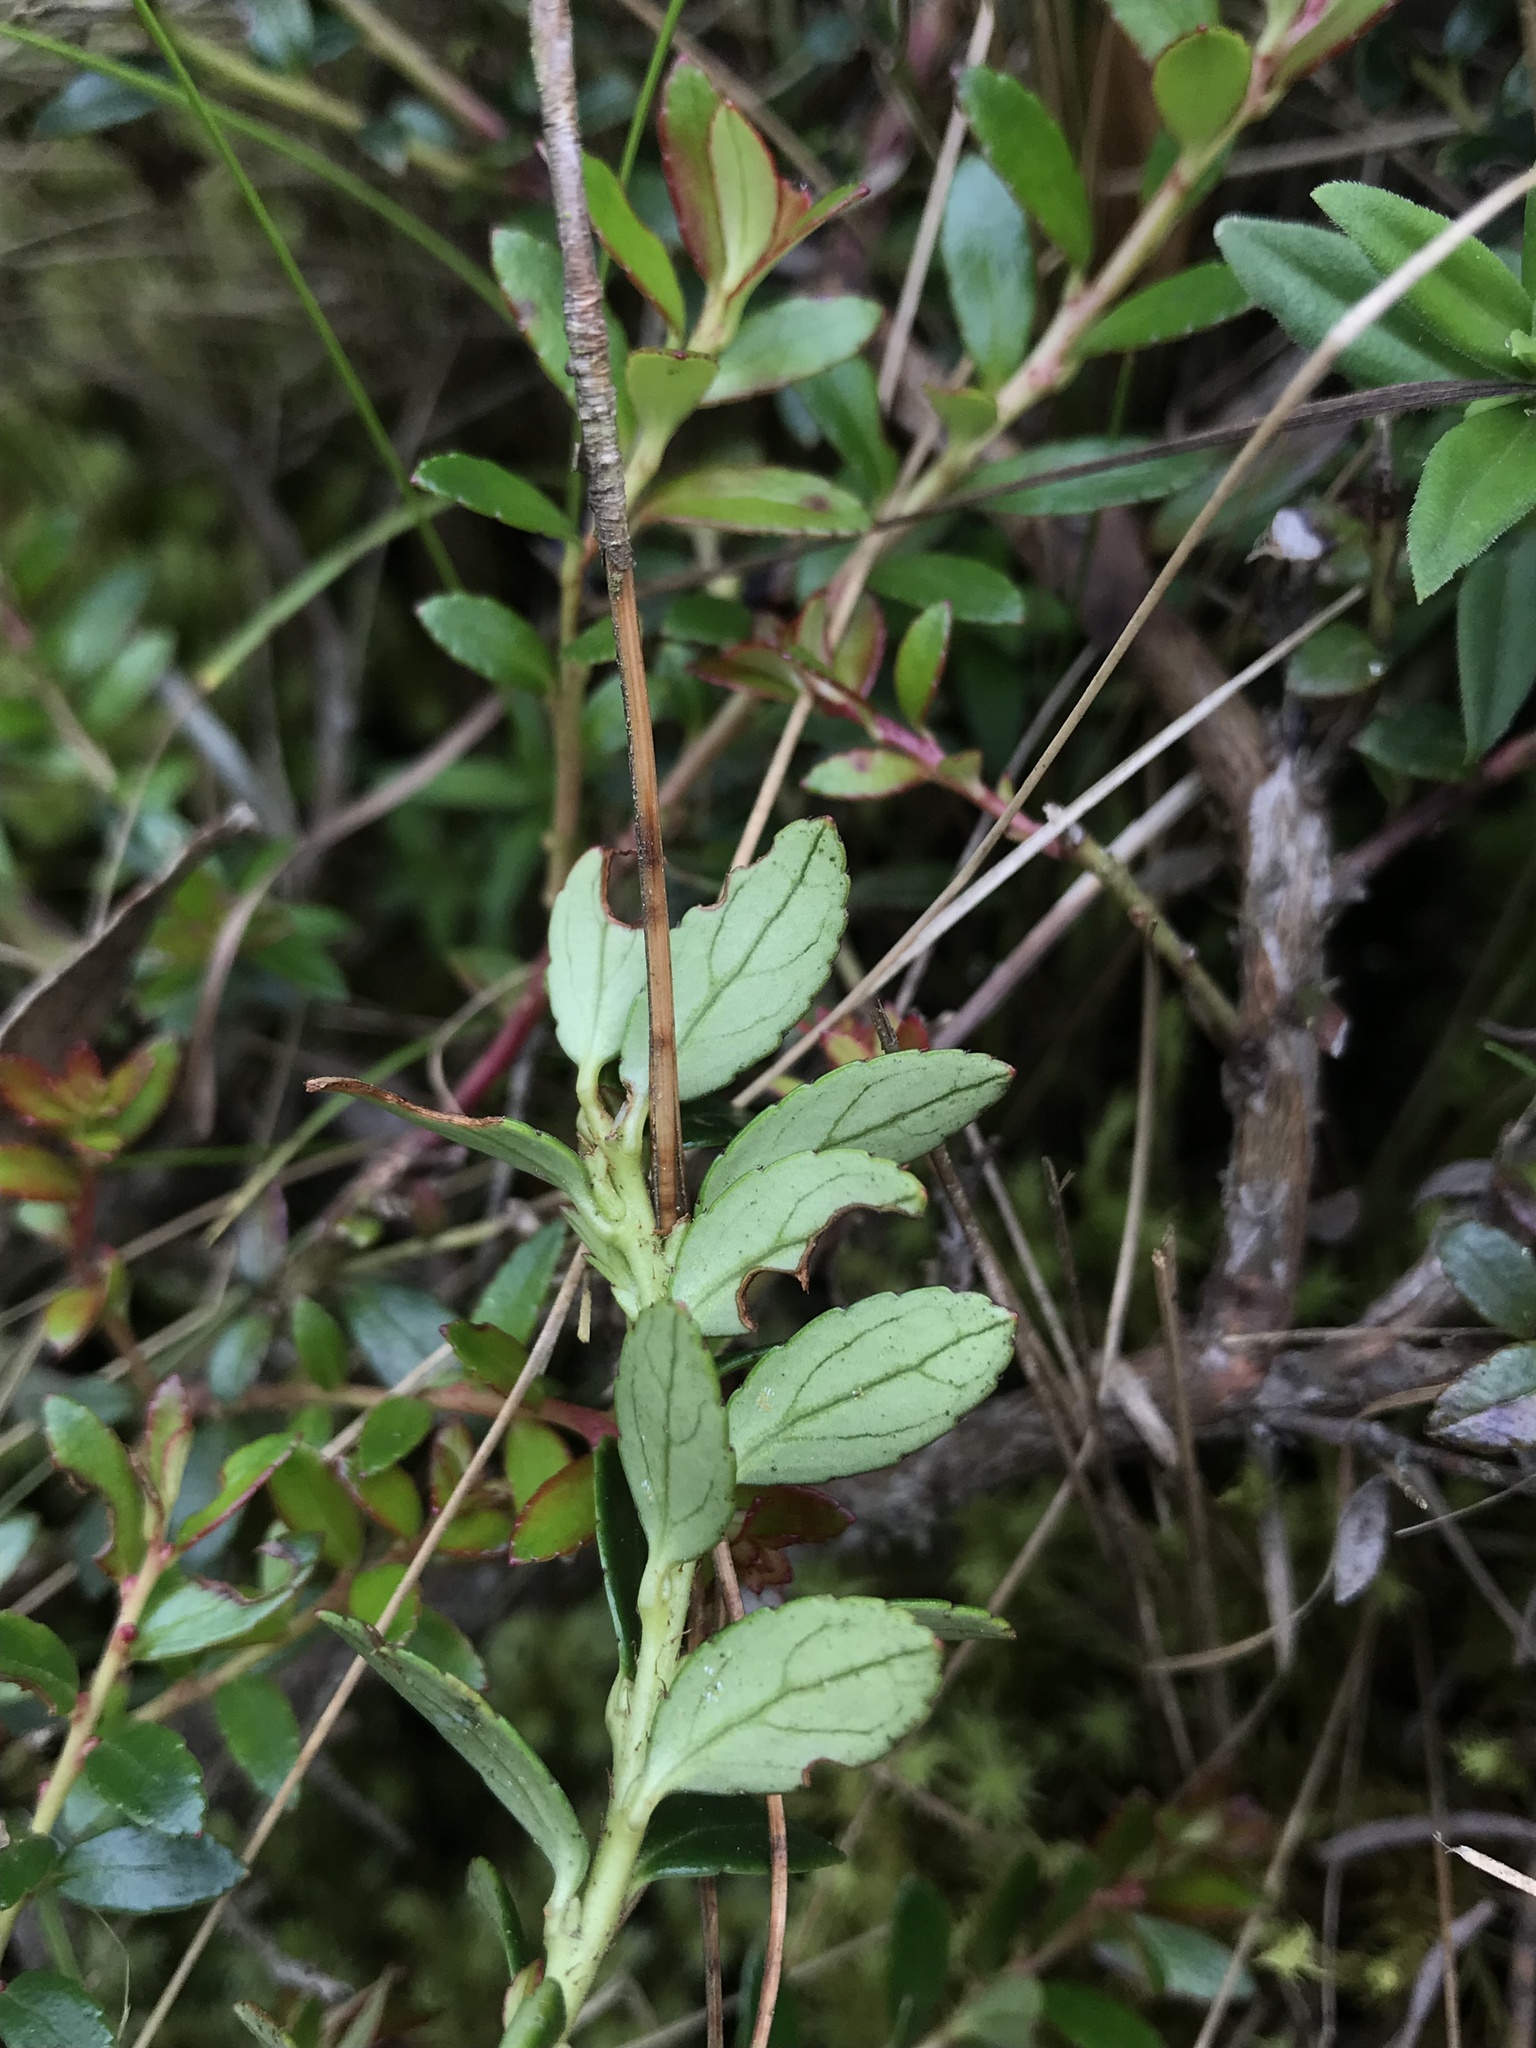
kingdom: Plantae
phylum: Tracheophyta
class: Magnoliopsida
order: Ericales
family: Ericaceae
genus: Gaultheria
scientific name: Gaultheria myrsinoides
